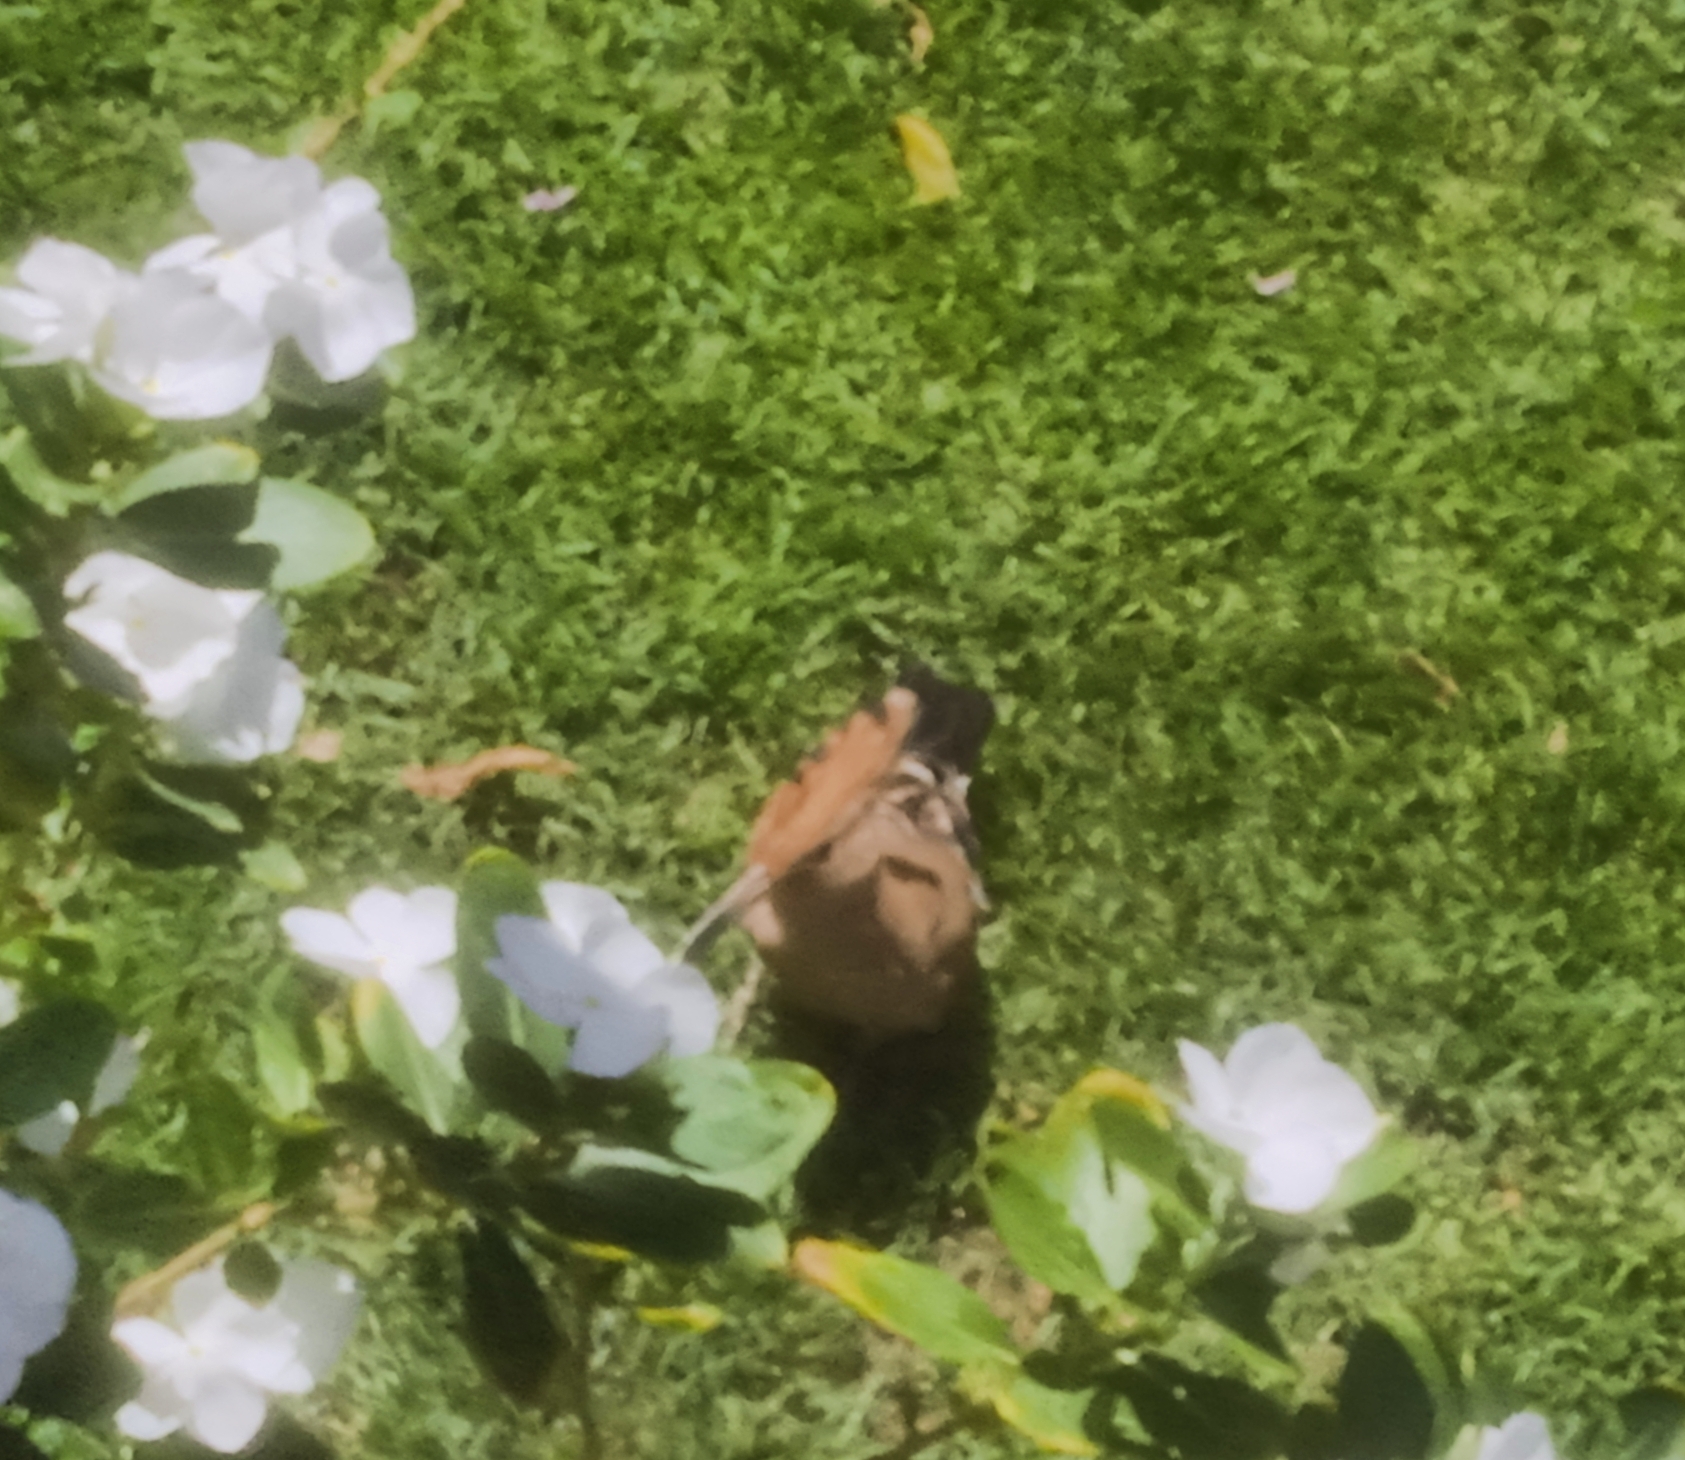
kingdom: Animalia
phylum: Chordata
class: Aves
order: Bucerotiformes
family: Upupidae
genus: Upupa
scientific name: Upupa epops
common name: Eurasian hoopoe
